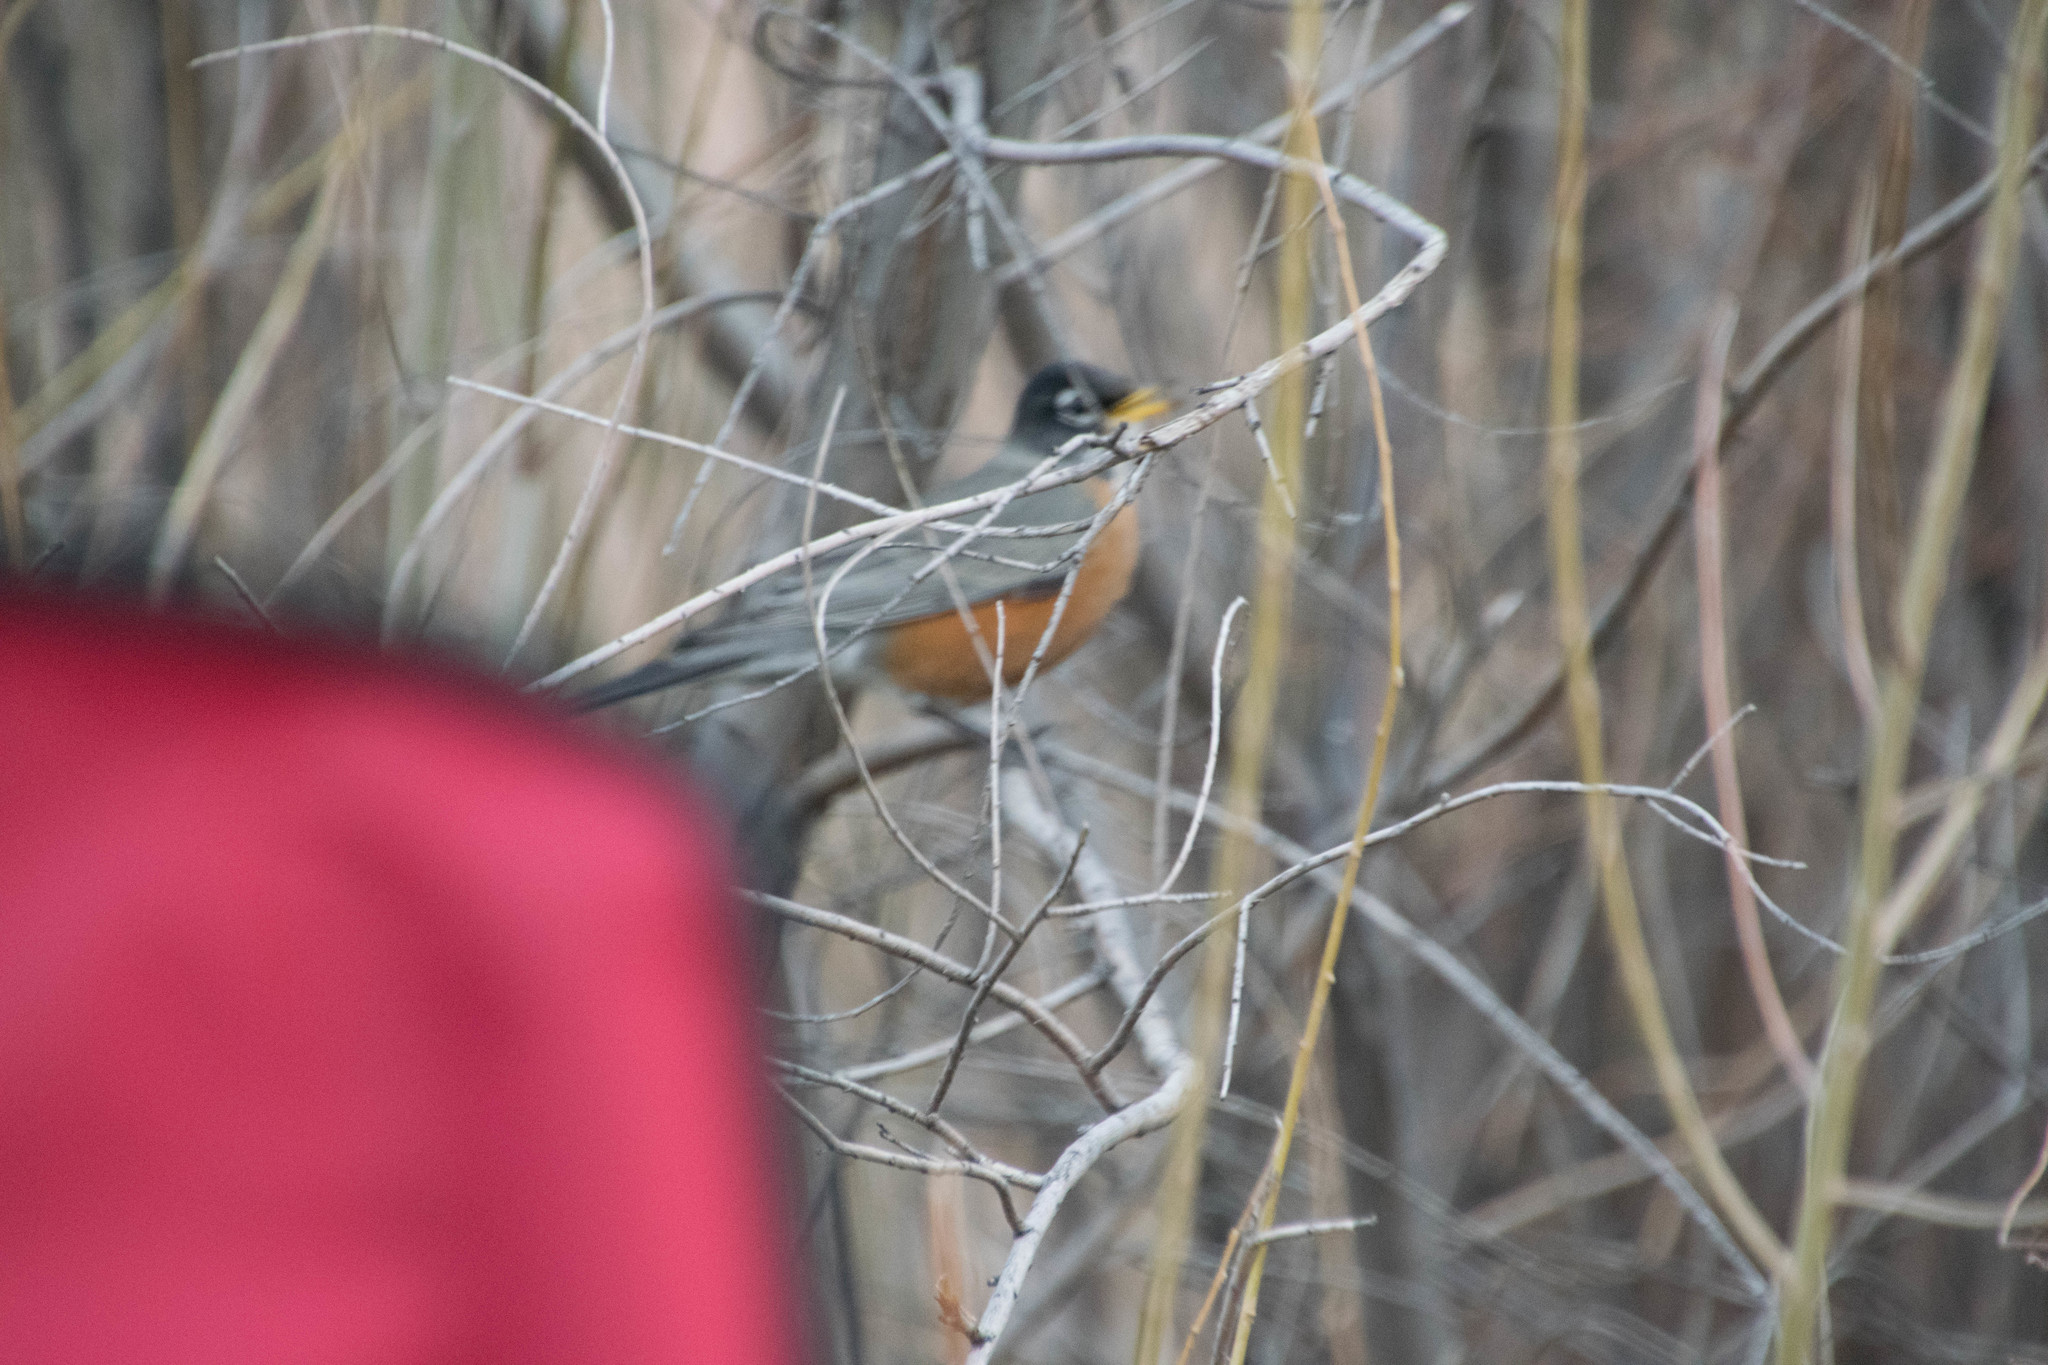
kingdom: Animalia
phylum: Chordata
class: Aves
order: Passeriformes
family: Turdidae
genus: Turdus
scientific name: Turdus migratorius
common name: American robin
